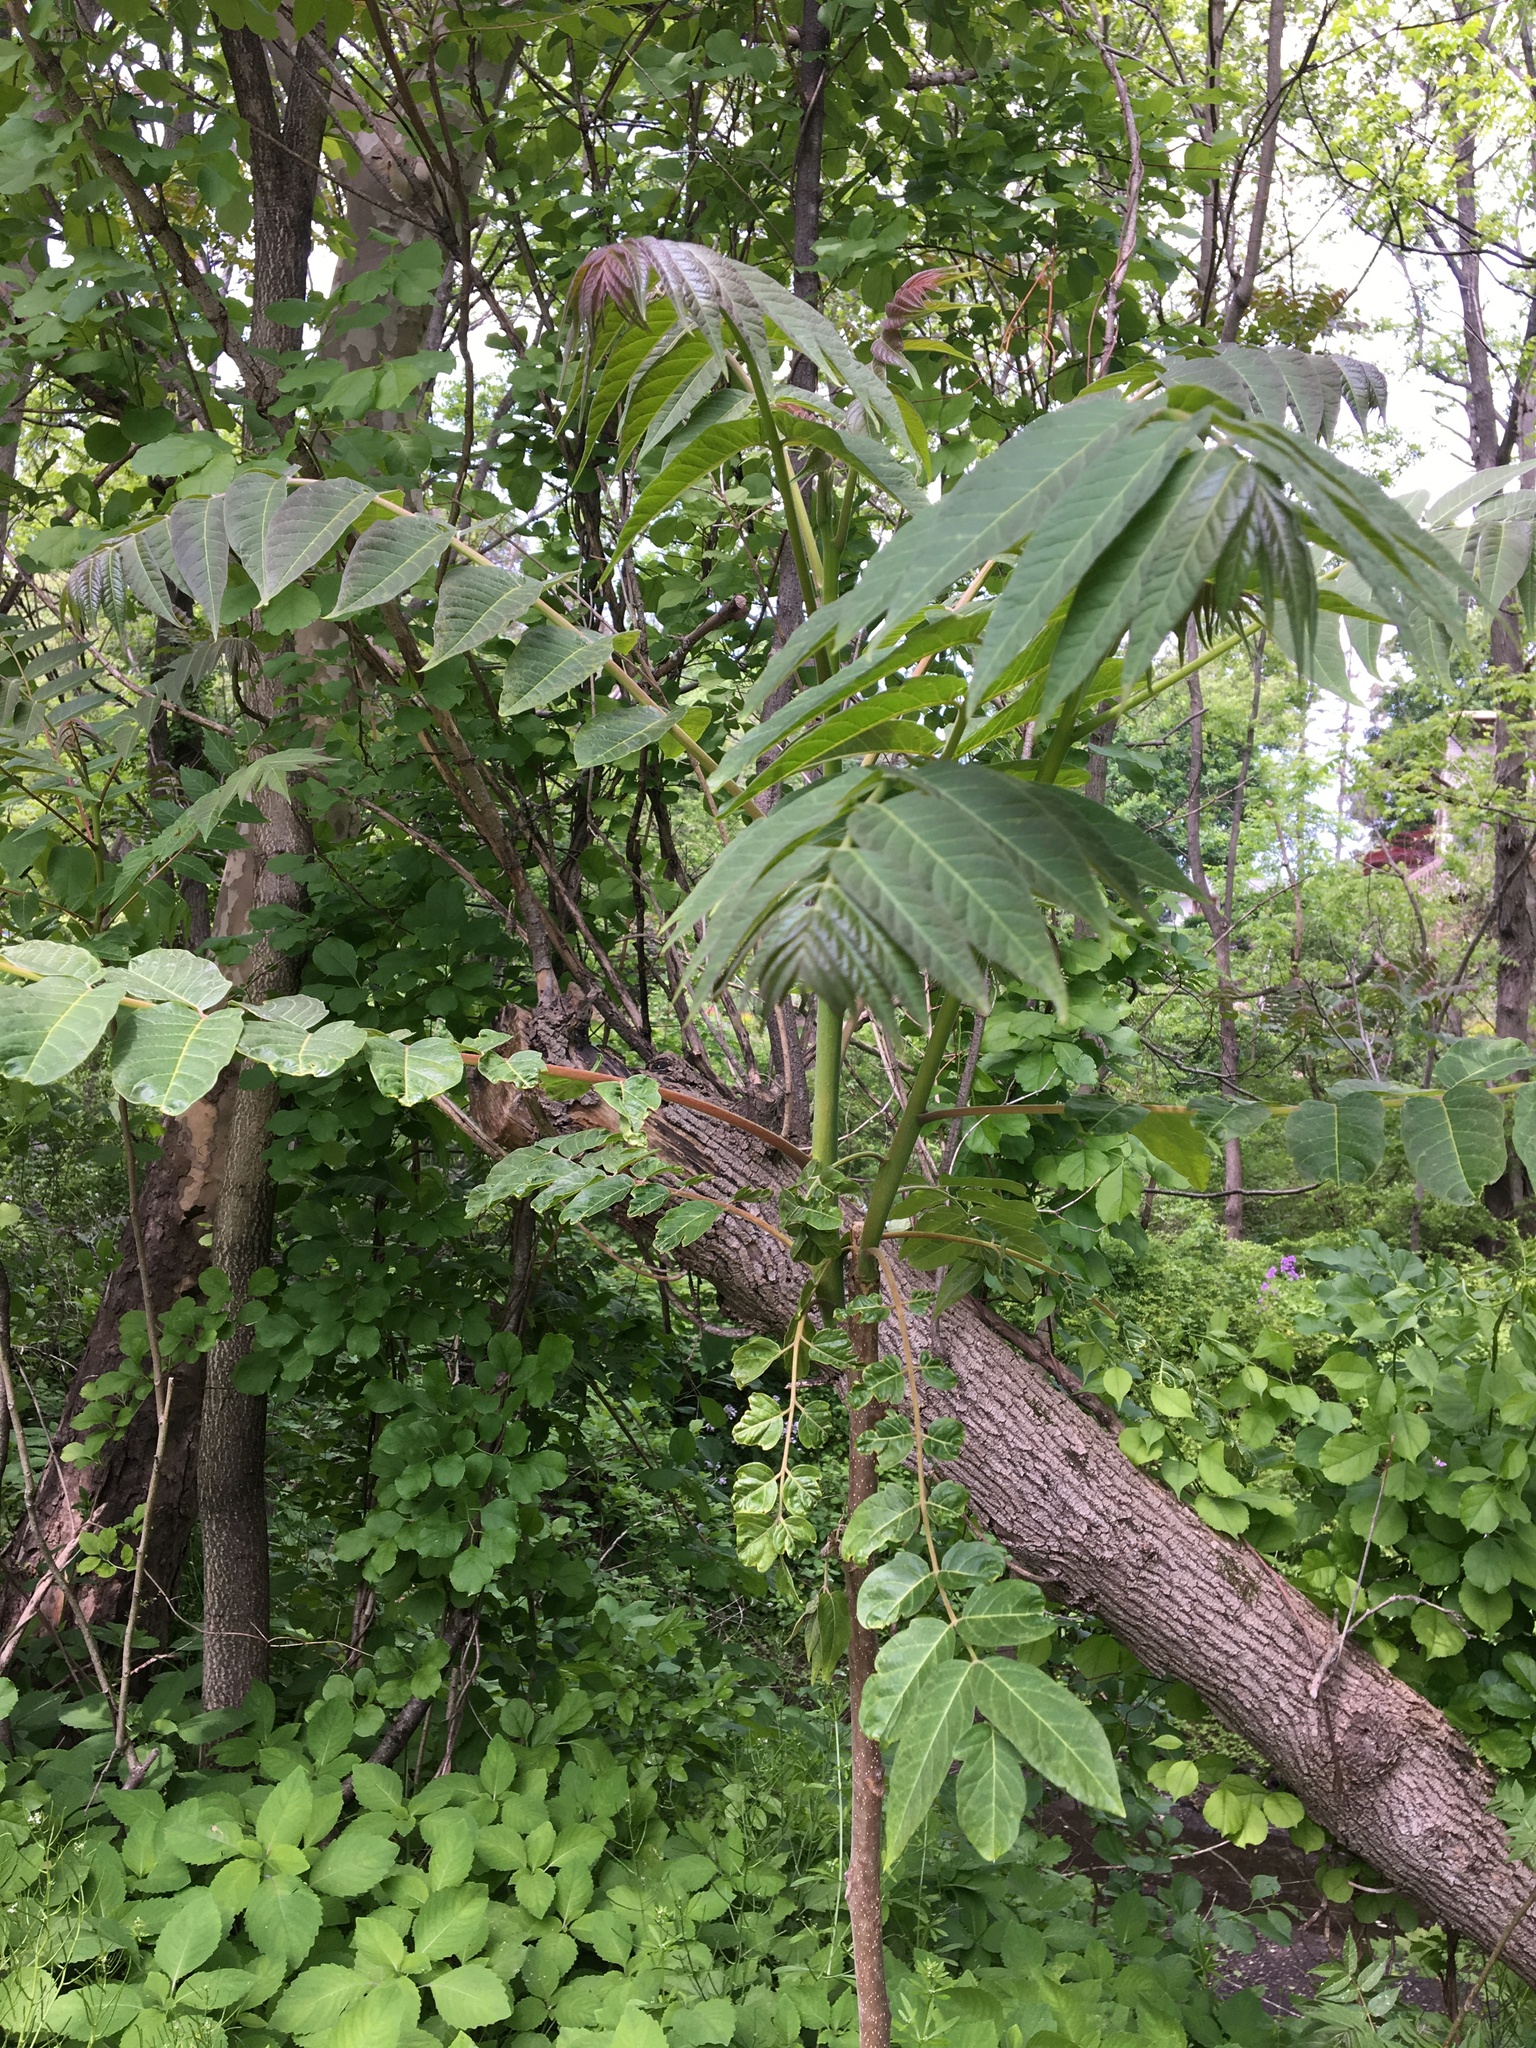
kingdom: Plantae
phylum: Tracheophyta
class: Magnoliopsida
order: Sapindales
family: Simaroubaceae
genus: Ailanthus
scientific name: Ailanthus altissima
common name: Tree-of-heaven
